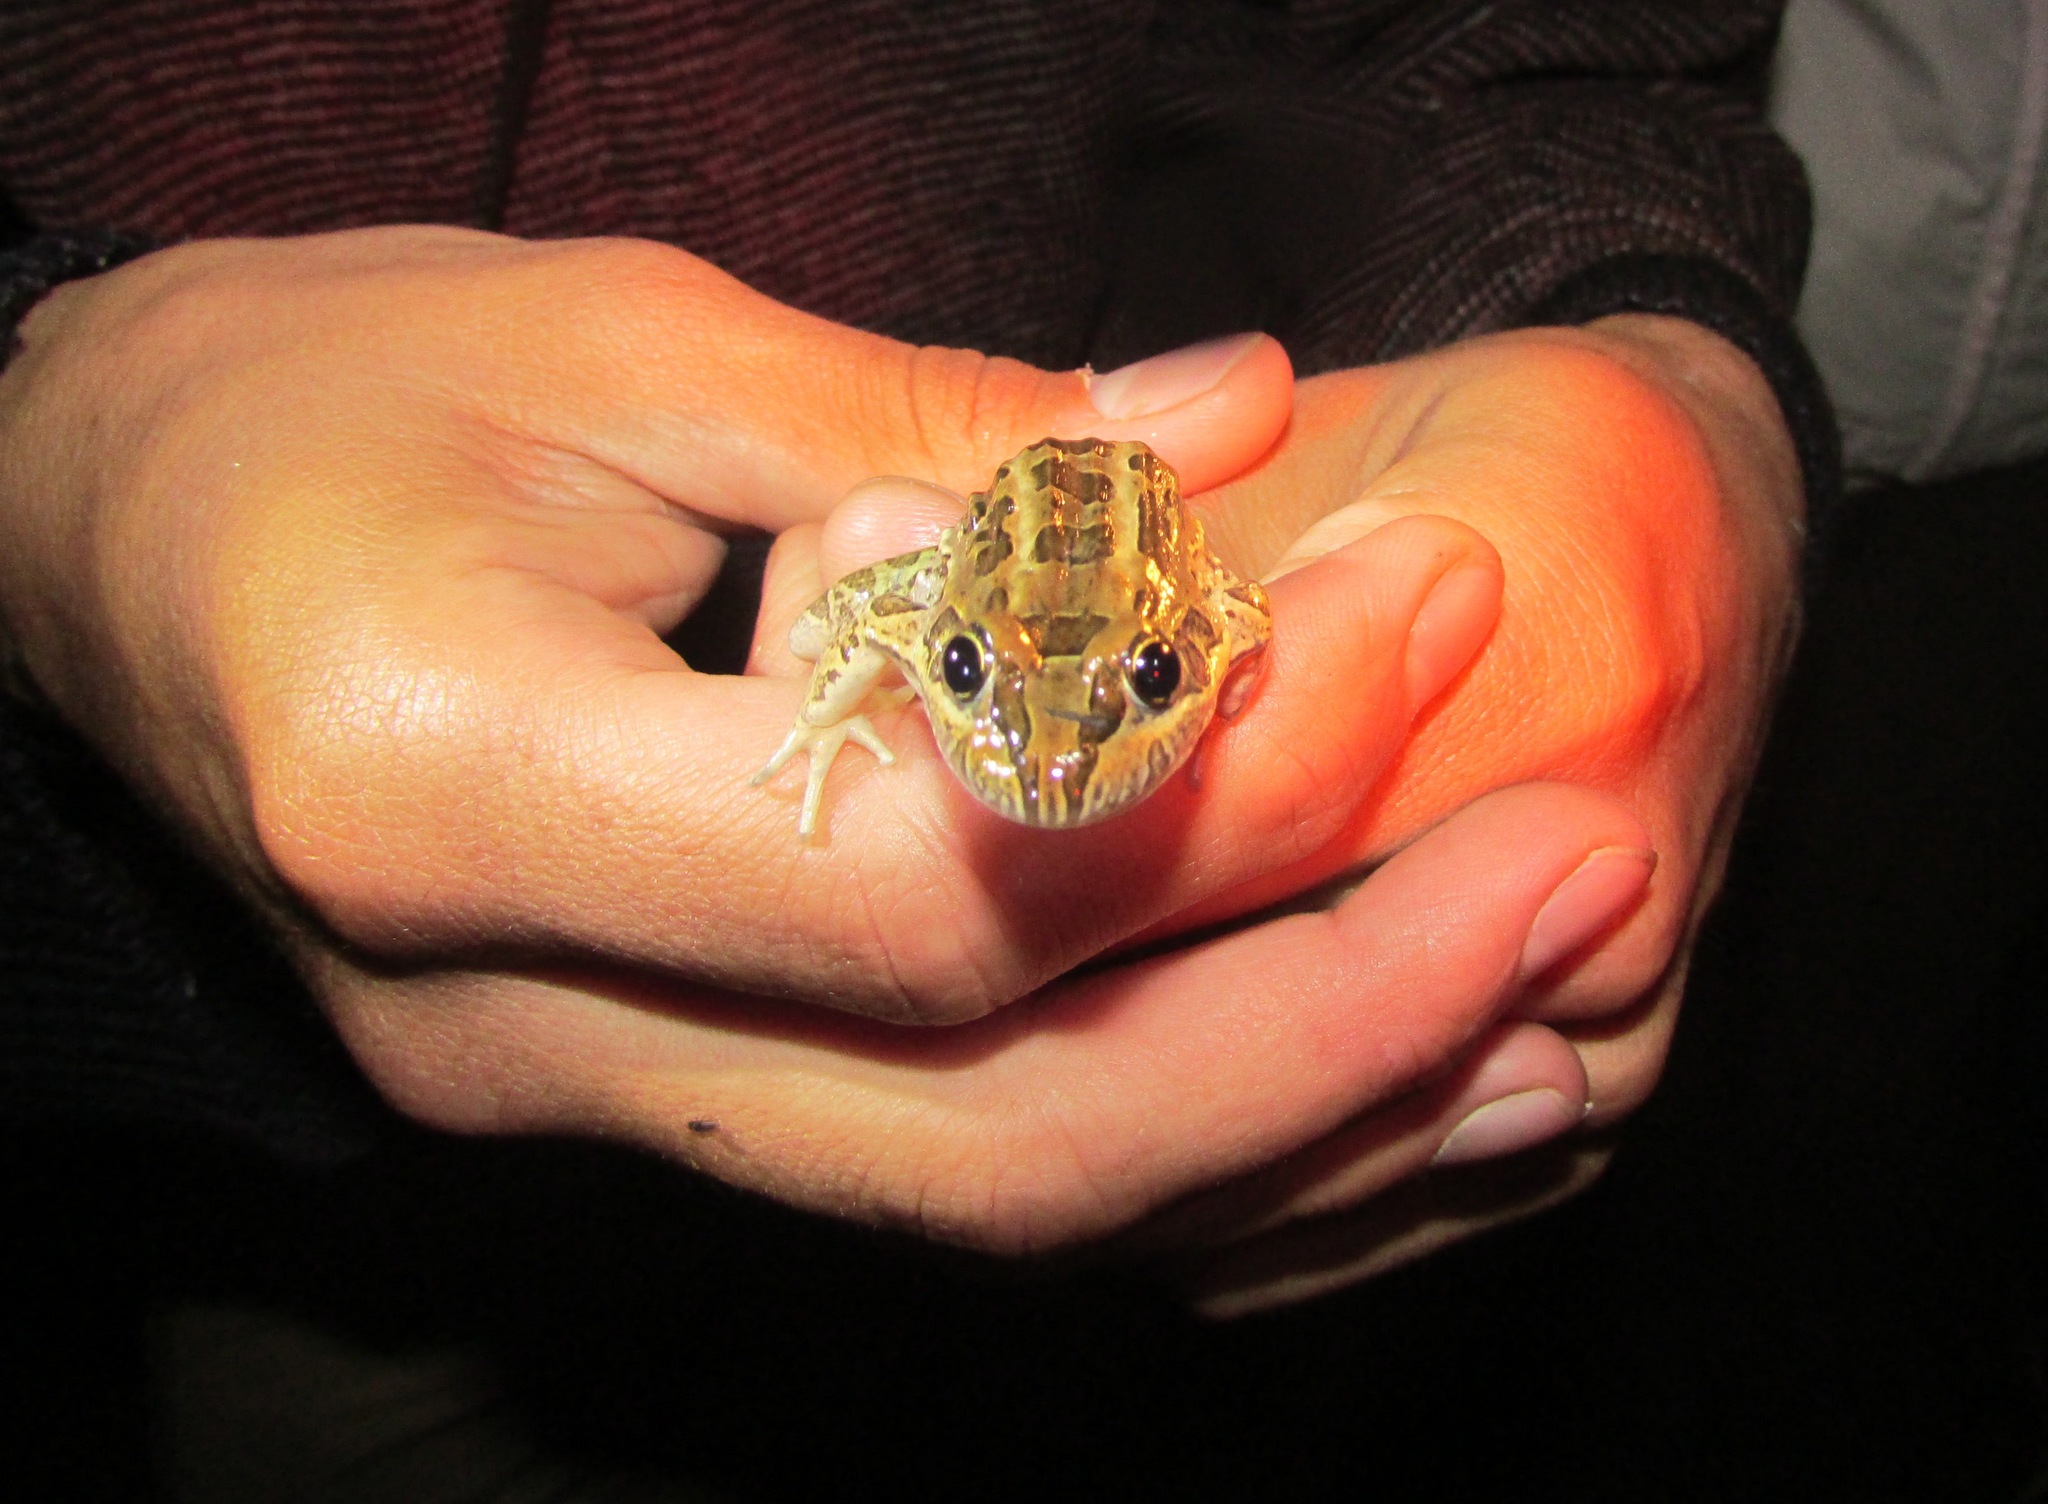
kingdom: Animalia
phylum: Chordata
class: Amphibia
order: Anura
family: Leptodactylidae
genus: Leptodactylus
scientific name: Leptodactylus luctator
